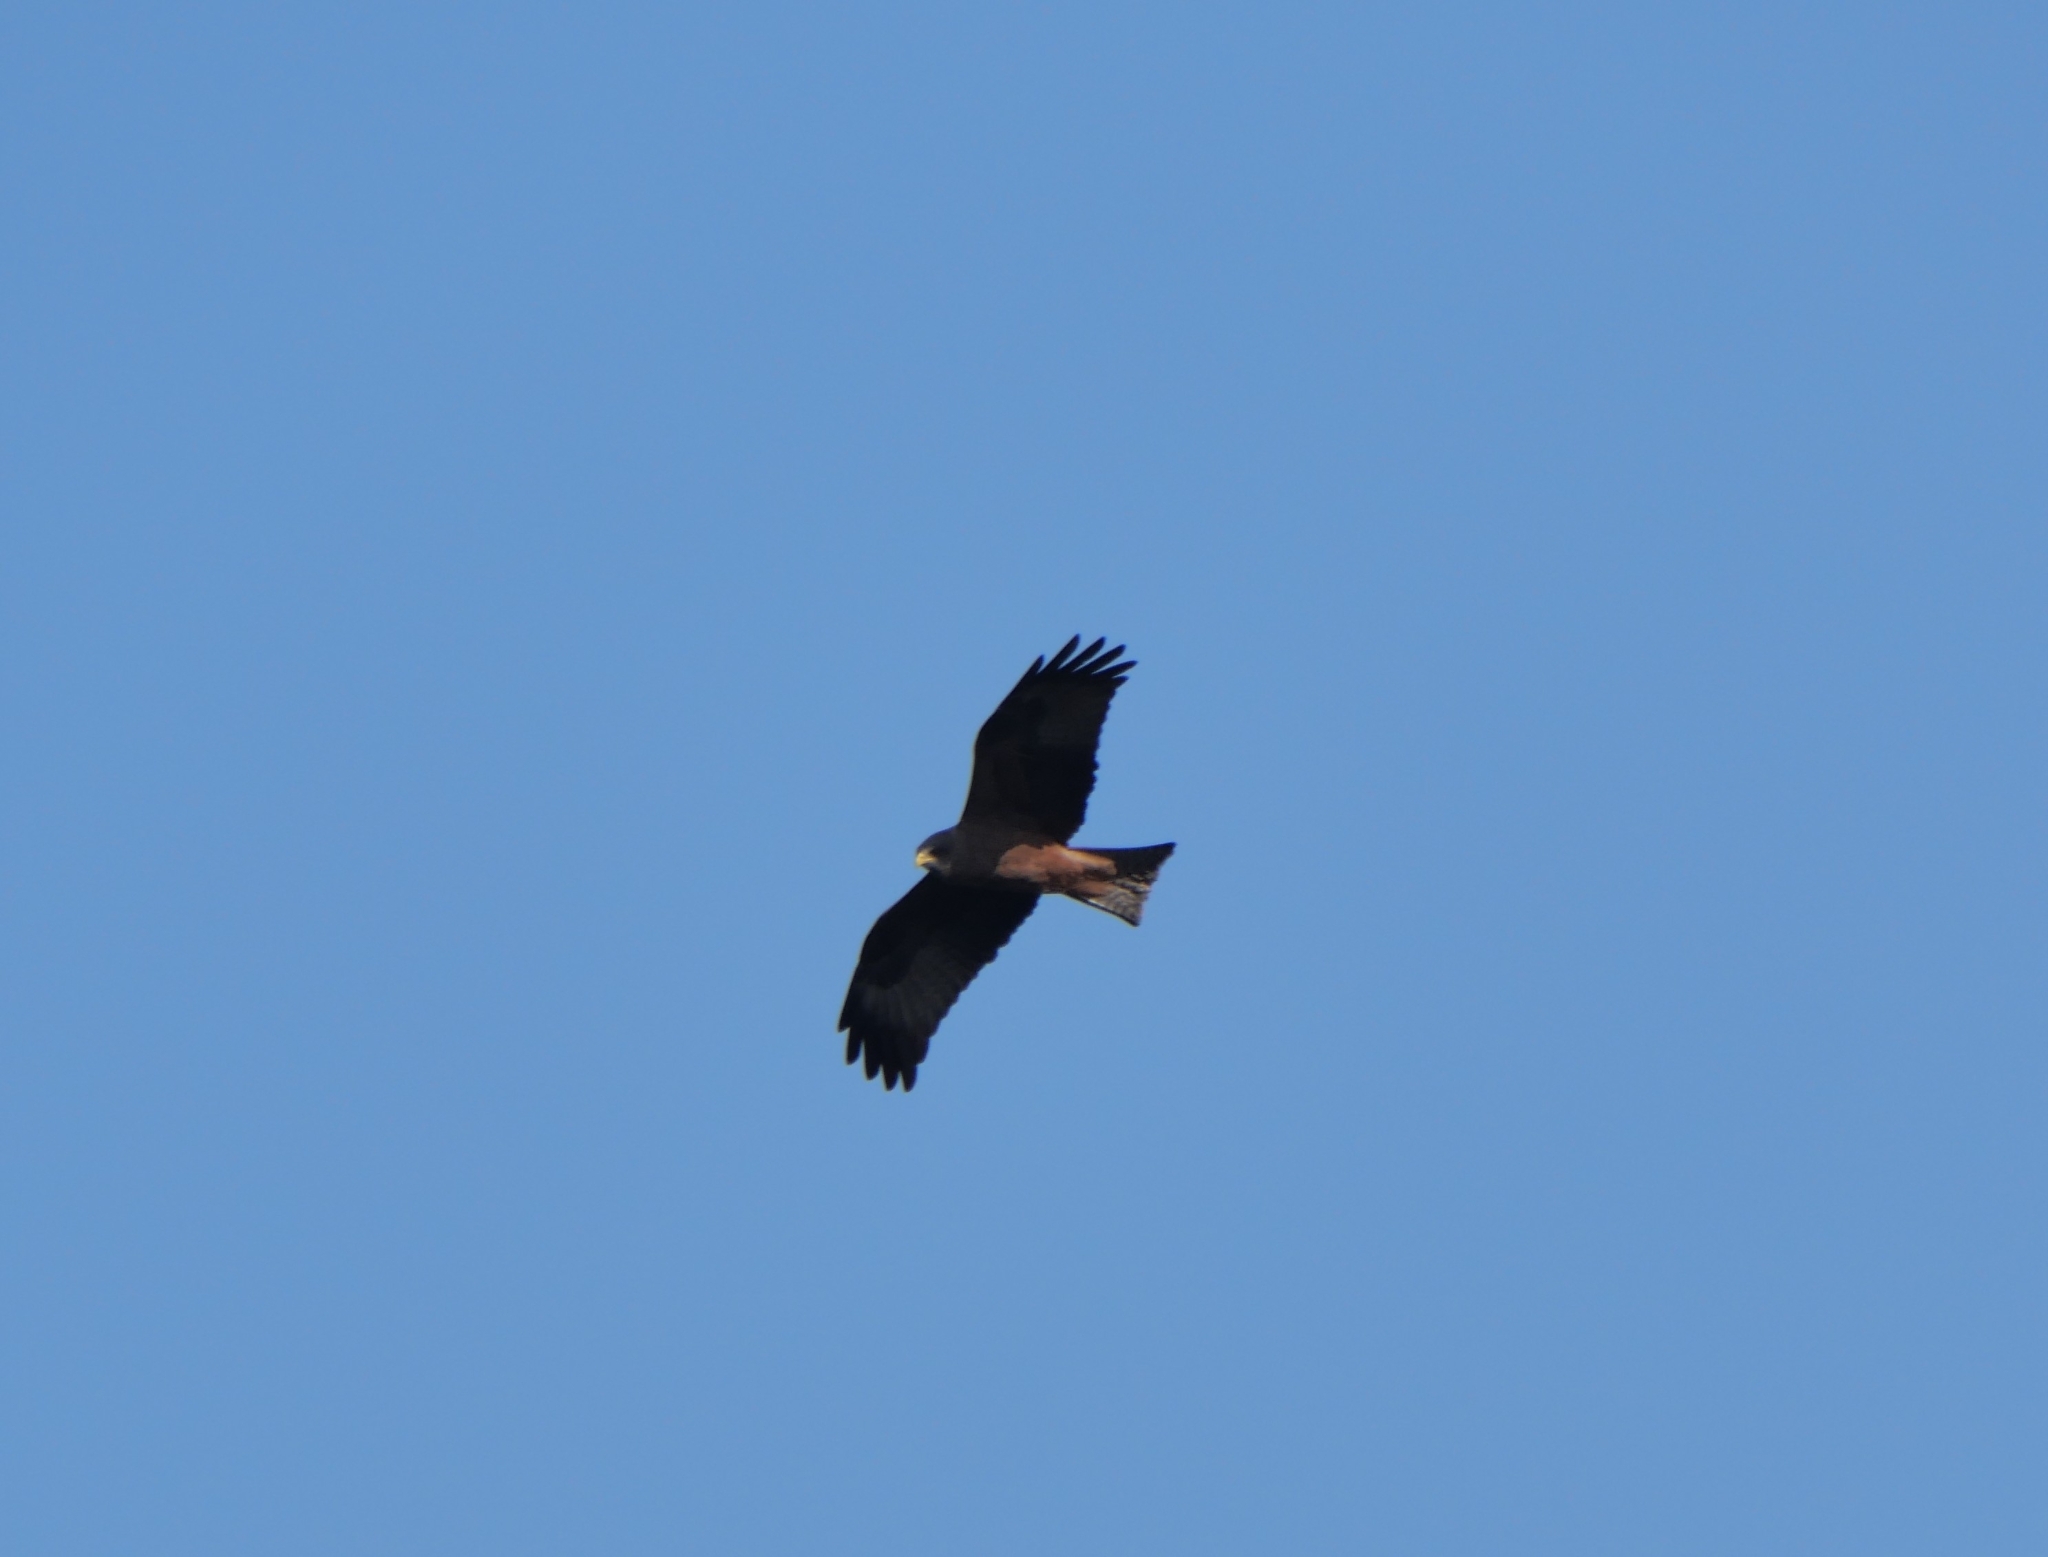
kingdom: Animalia
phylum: Chordata
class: Aves
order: Accipitriformes
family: Accipitridae
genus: Milvus
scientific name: Milvus migrans
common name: Black kite
